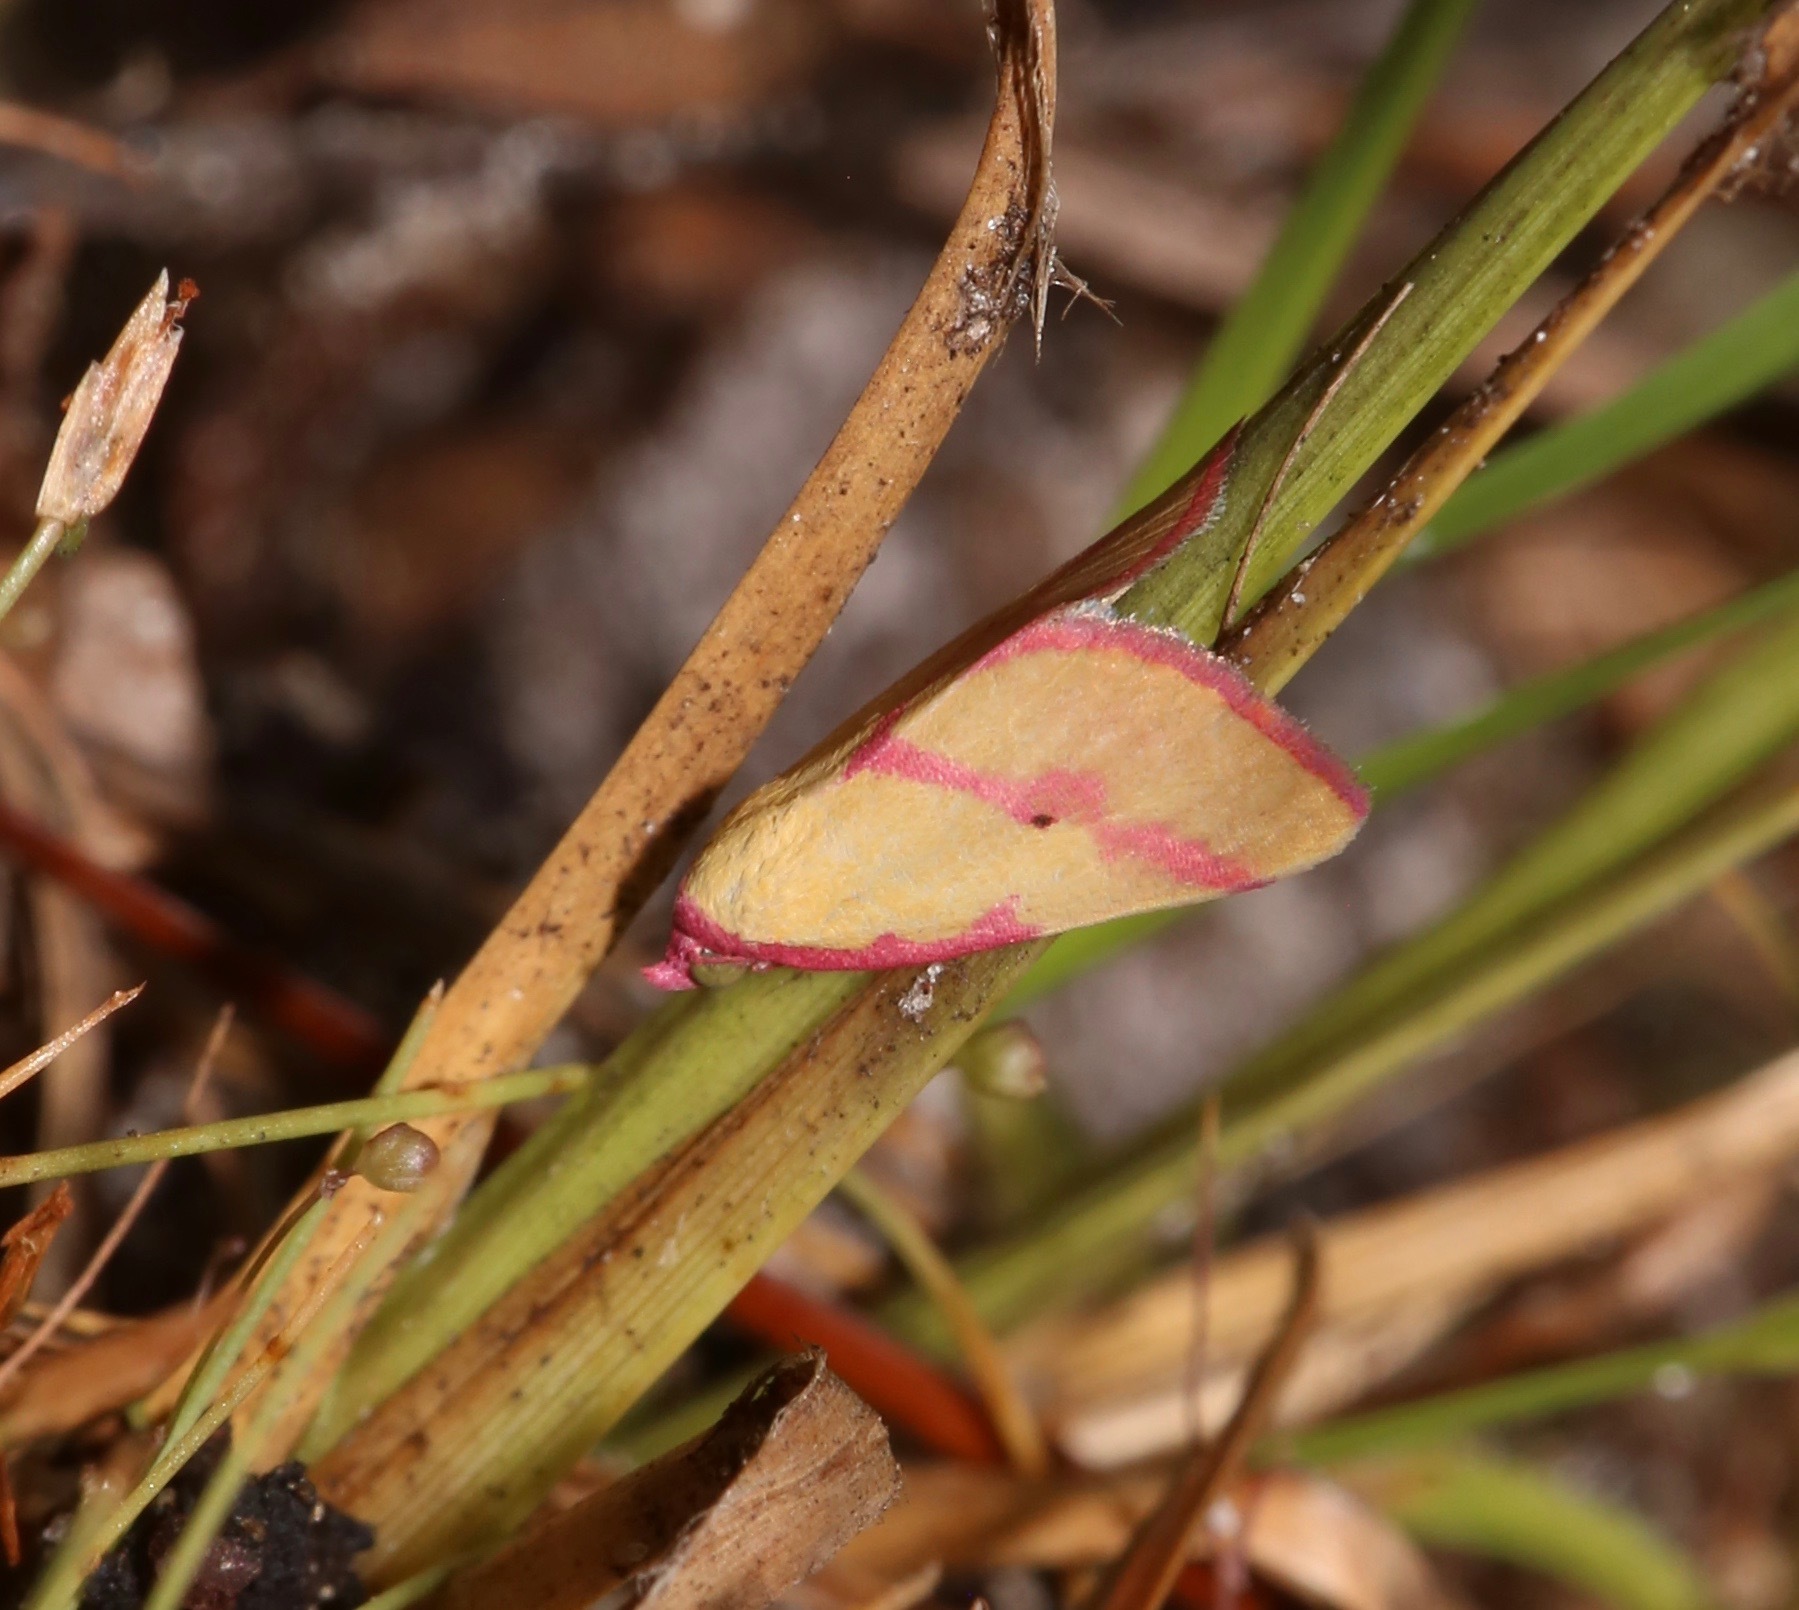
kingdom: Animalia
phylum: Arthropoda
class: Insecta
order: Lepidoptera
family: Erebidae
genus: Phytometra
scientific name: Phytometra ernestinana
